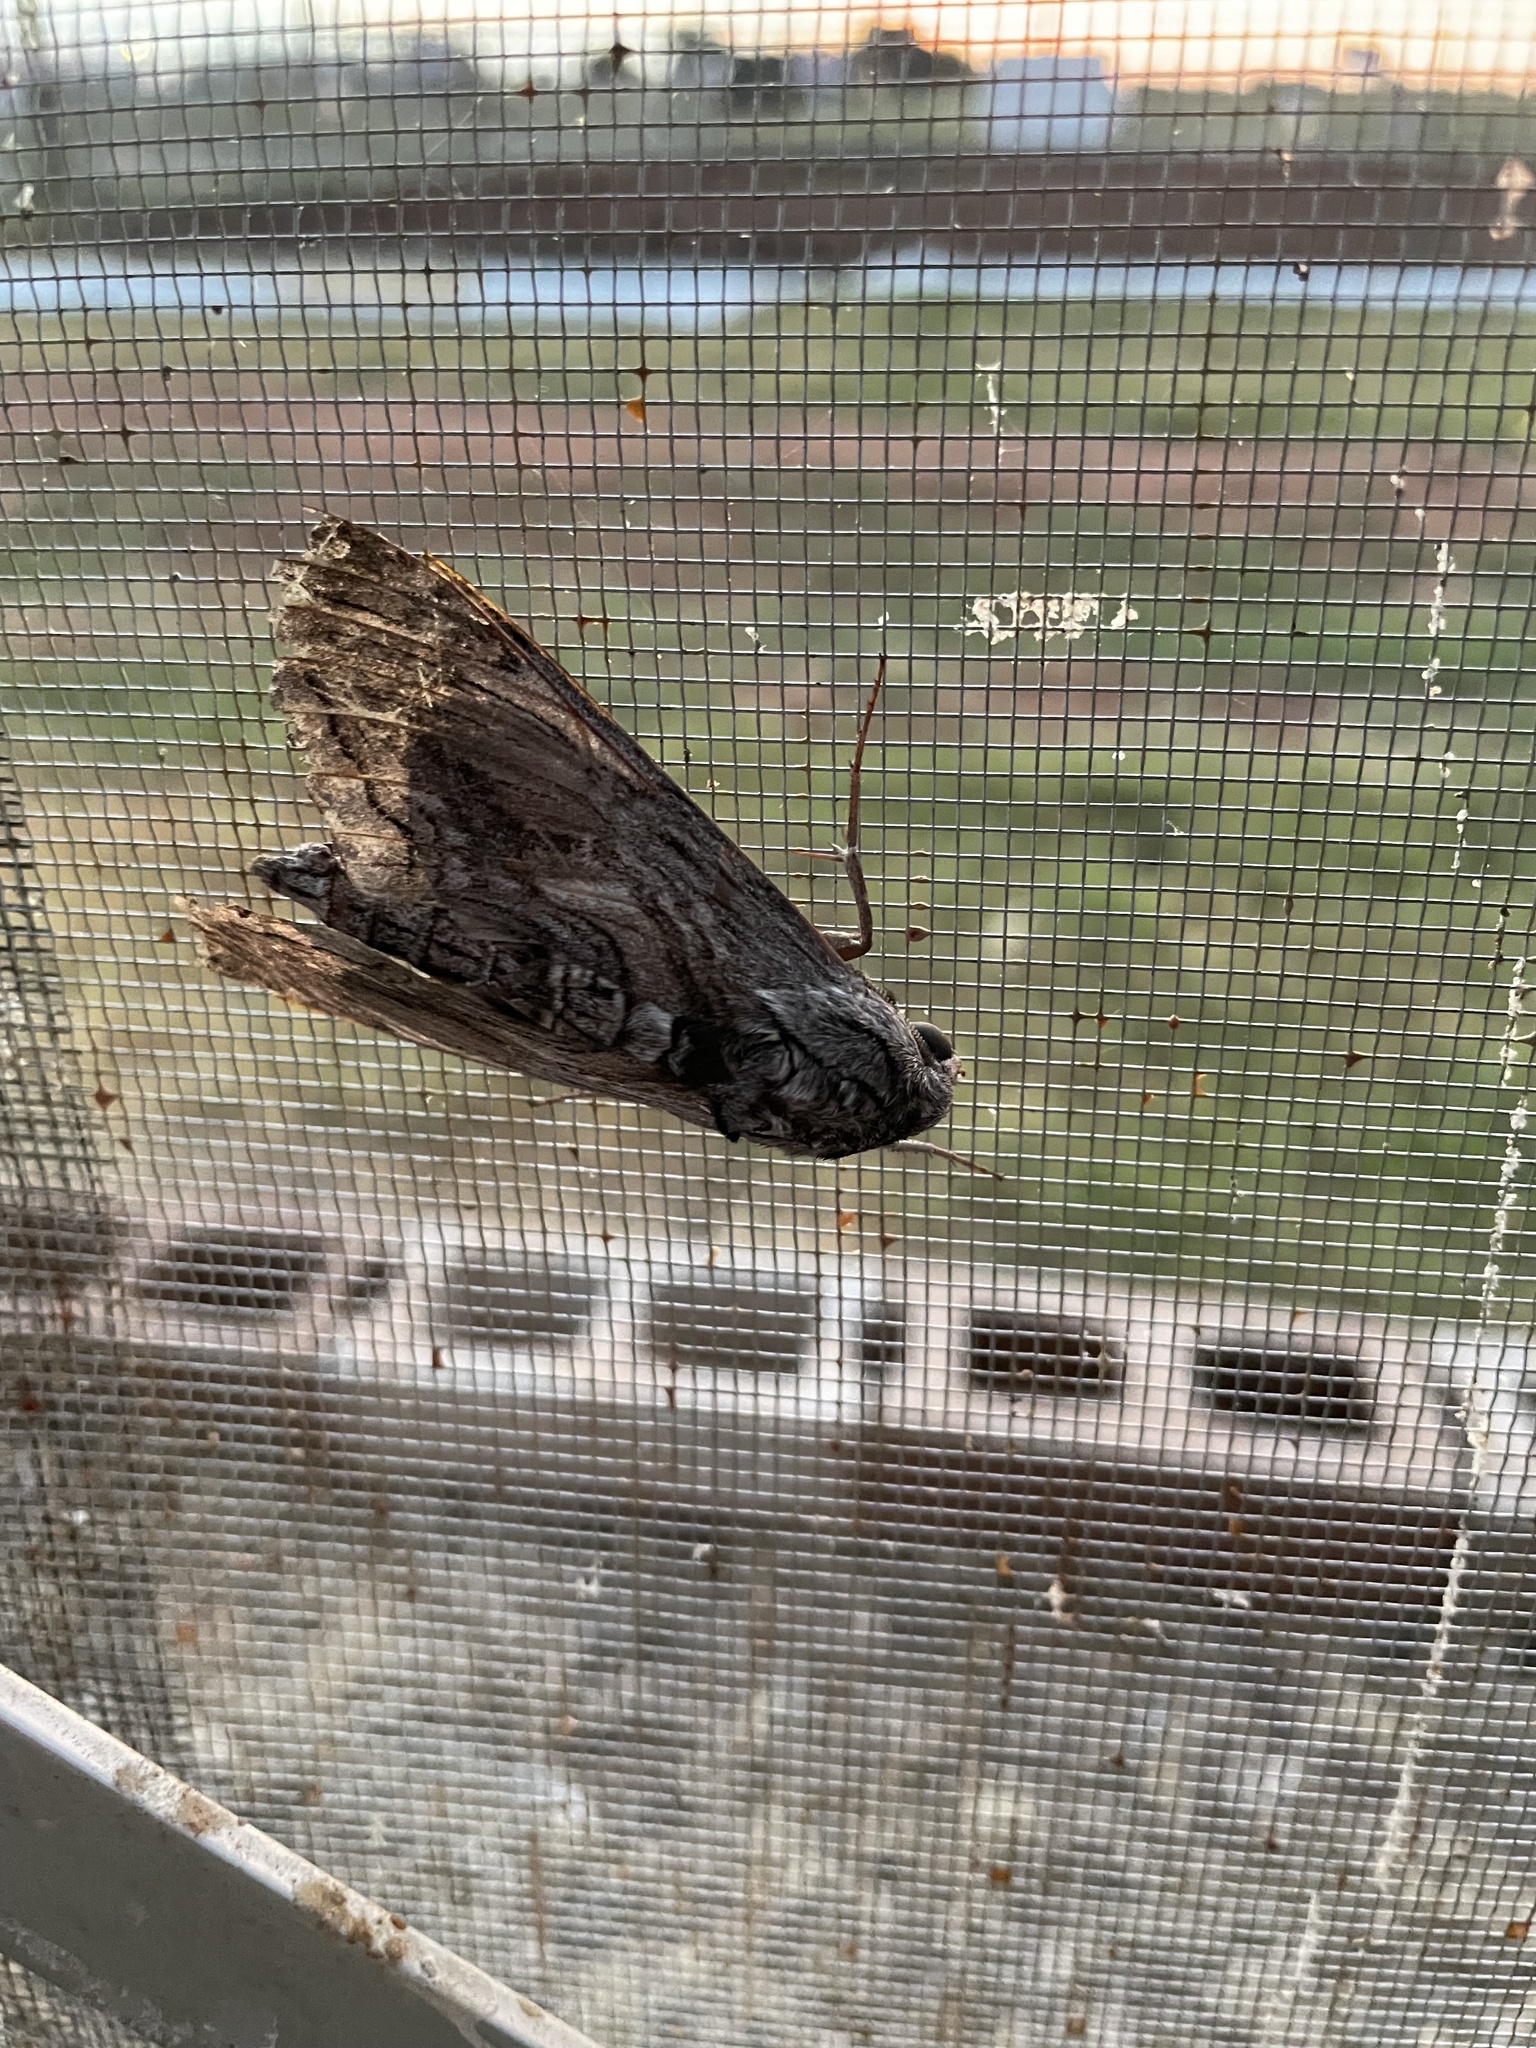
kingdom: Animalia
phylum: Arthropoda
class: Insecta
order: Lepidoptera
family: Sphingidae
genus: Manduca
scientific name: Manduca quinquemaculatus
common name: Five-spotted hawk-moth
